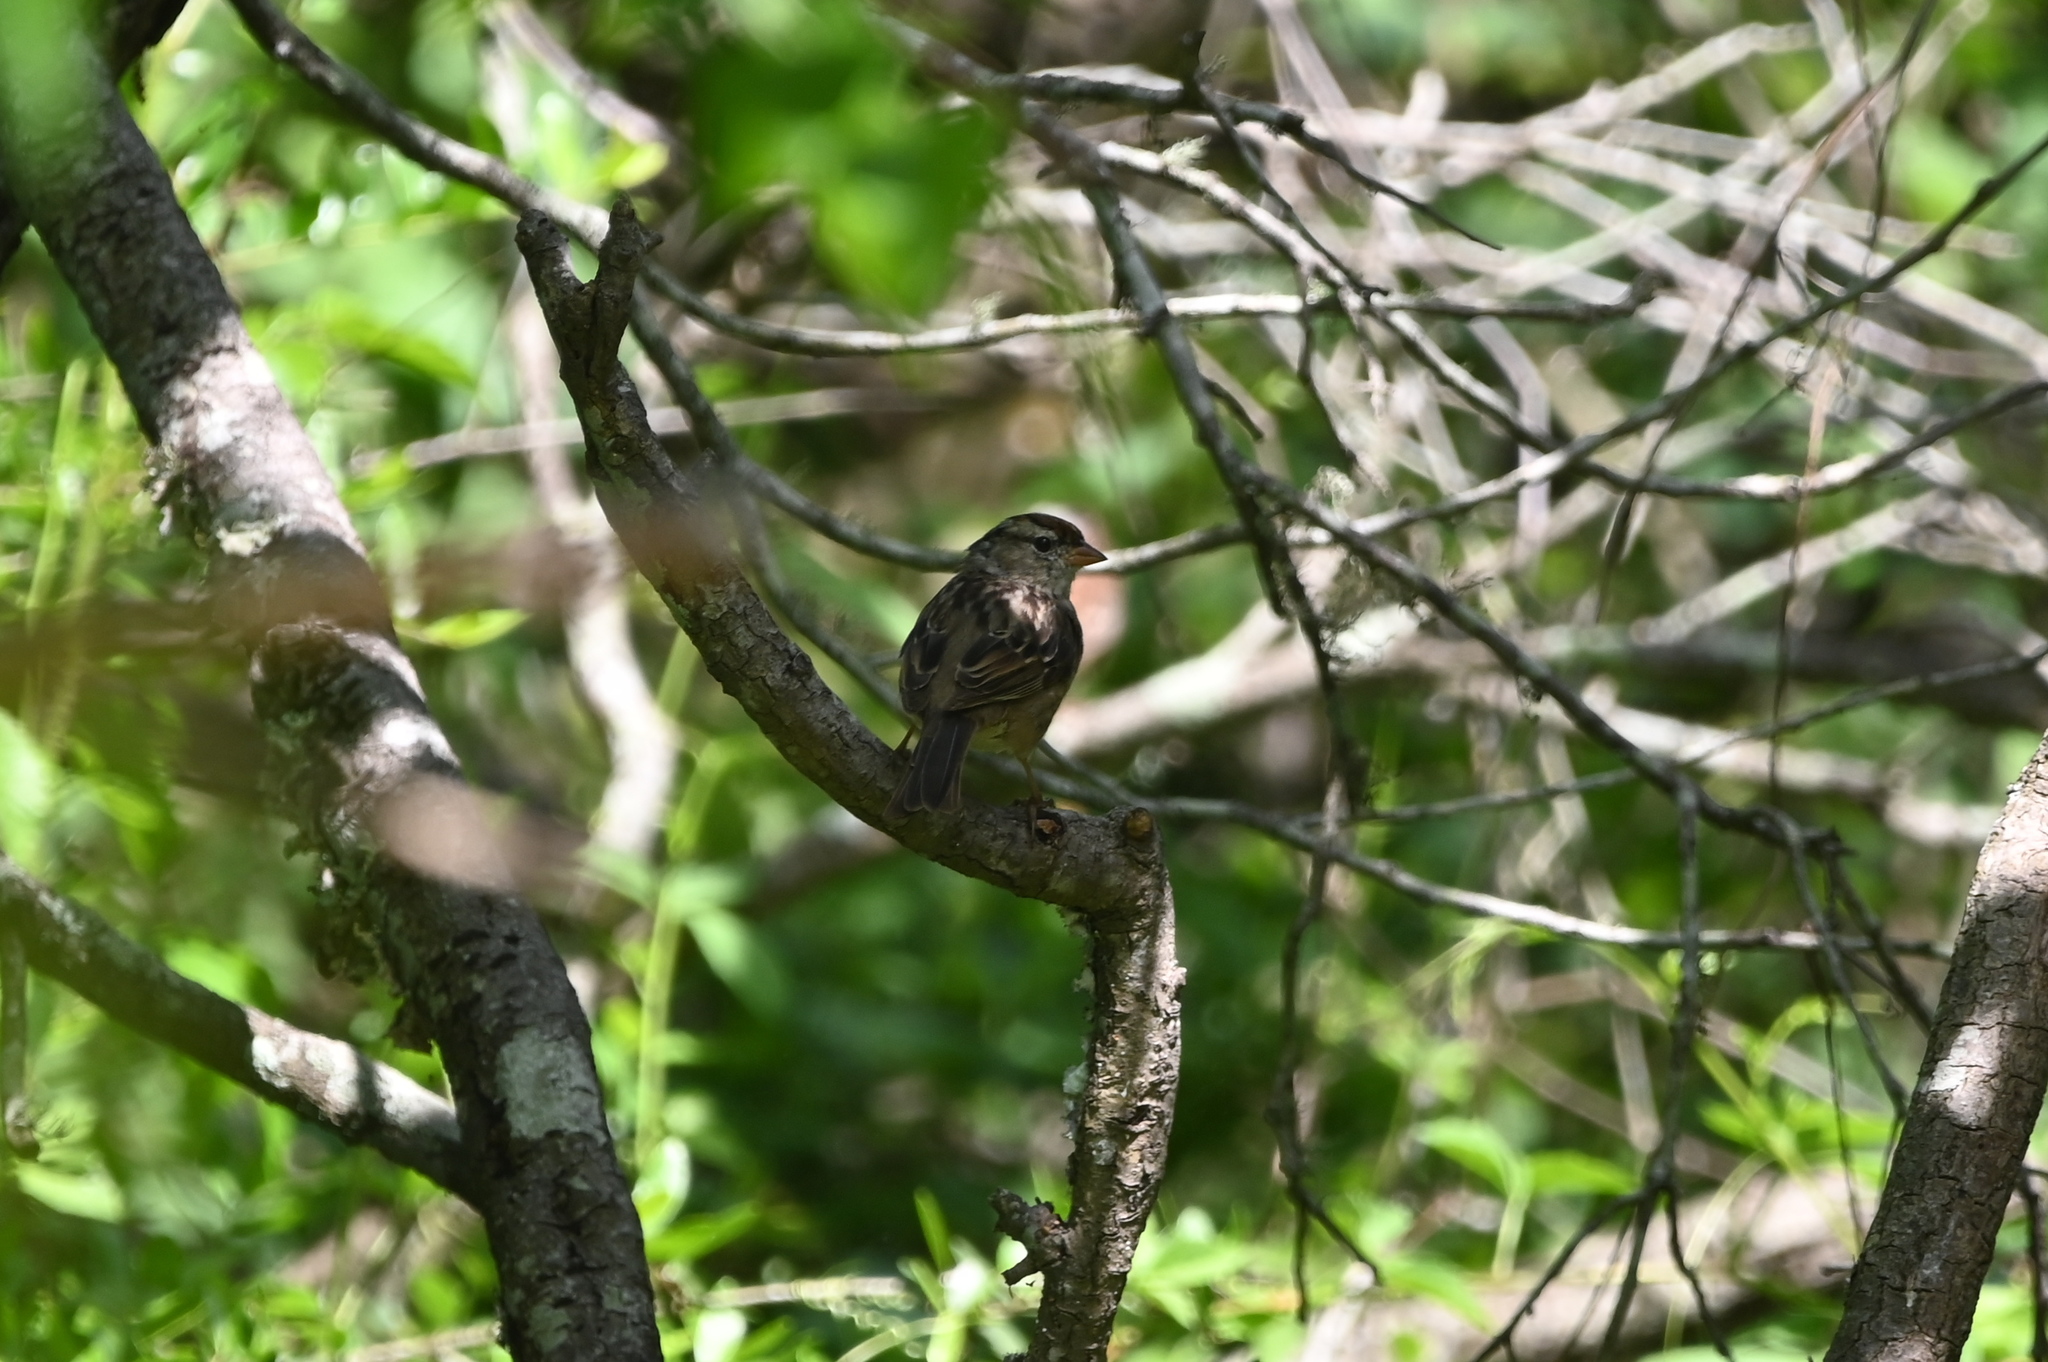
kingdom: Animalia
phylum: Chordata
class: Aves
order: Passeriformes
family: Passerellidae
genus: Zonotrichia
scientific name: Zonotrichia leucophrys
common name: White-crowned sparrow
